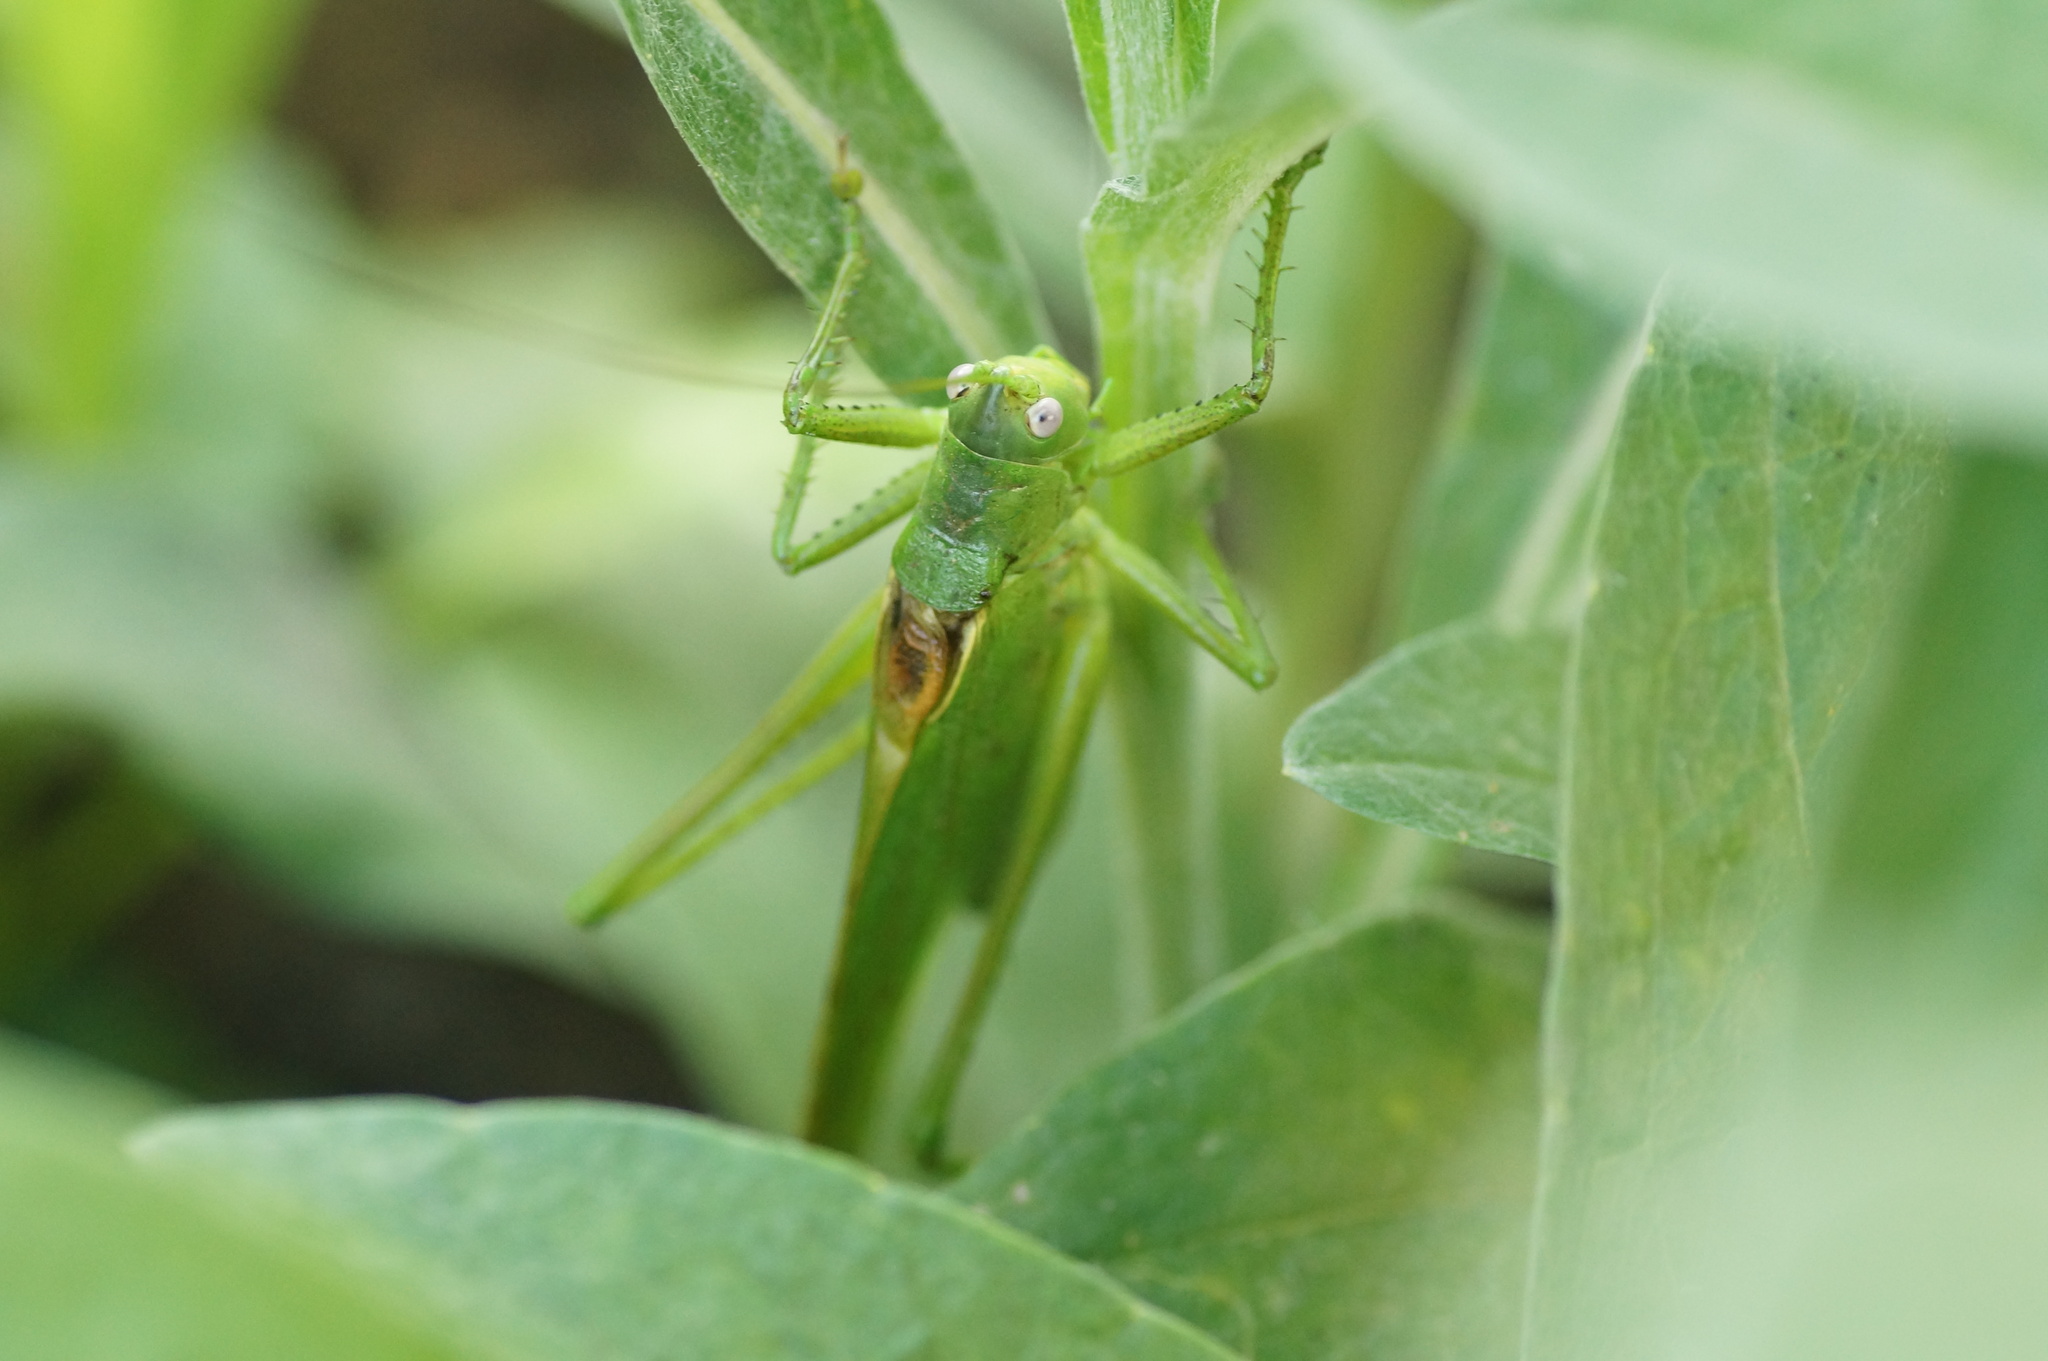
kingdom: Animalia
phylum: Arthropoda
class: Insecta
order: Orthoptera
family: Tettigoniidae
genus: Tettigonia
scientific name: Tettigonia caudata
